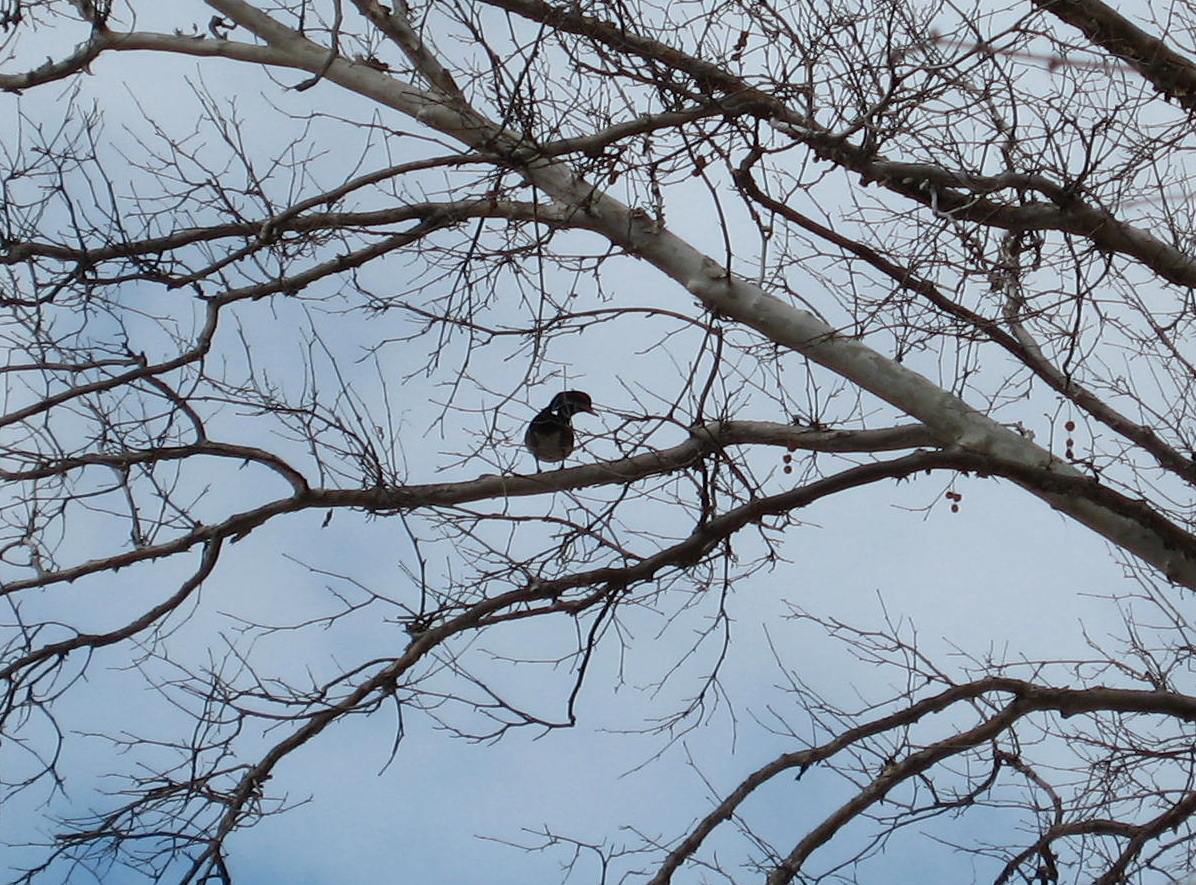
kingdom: Animalia
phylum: Chordata
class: Aves
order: Anseriformes
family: Anatidae
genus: Aix
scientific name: Aix sponsa
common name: Wood duck
